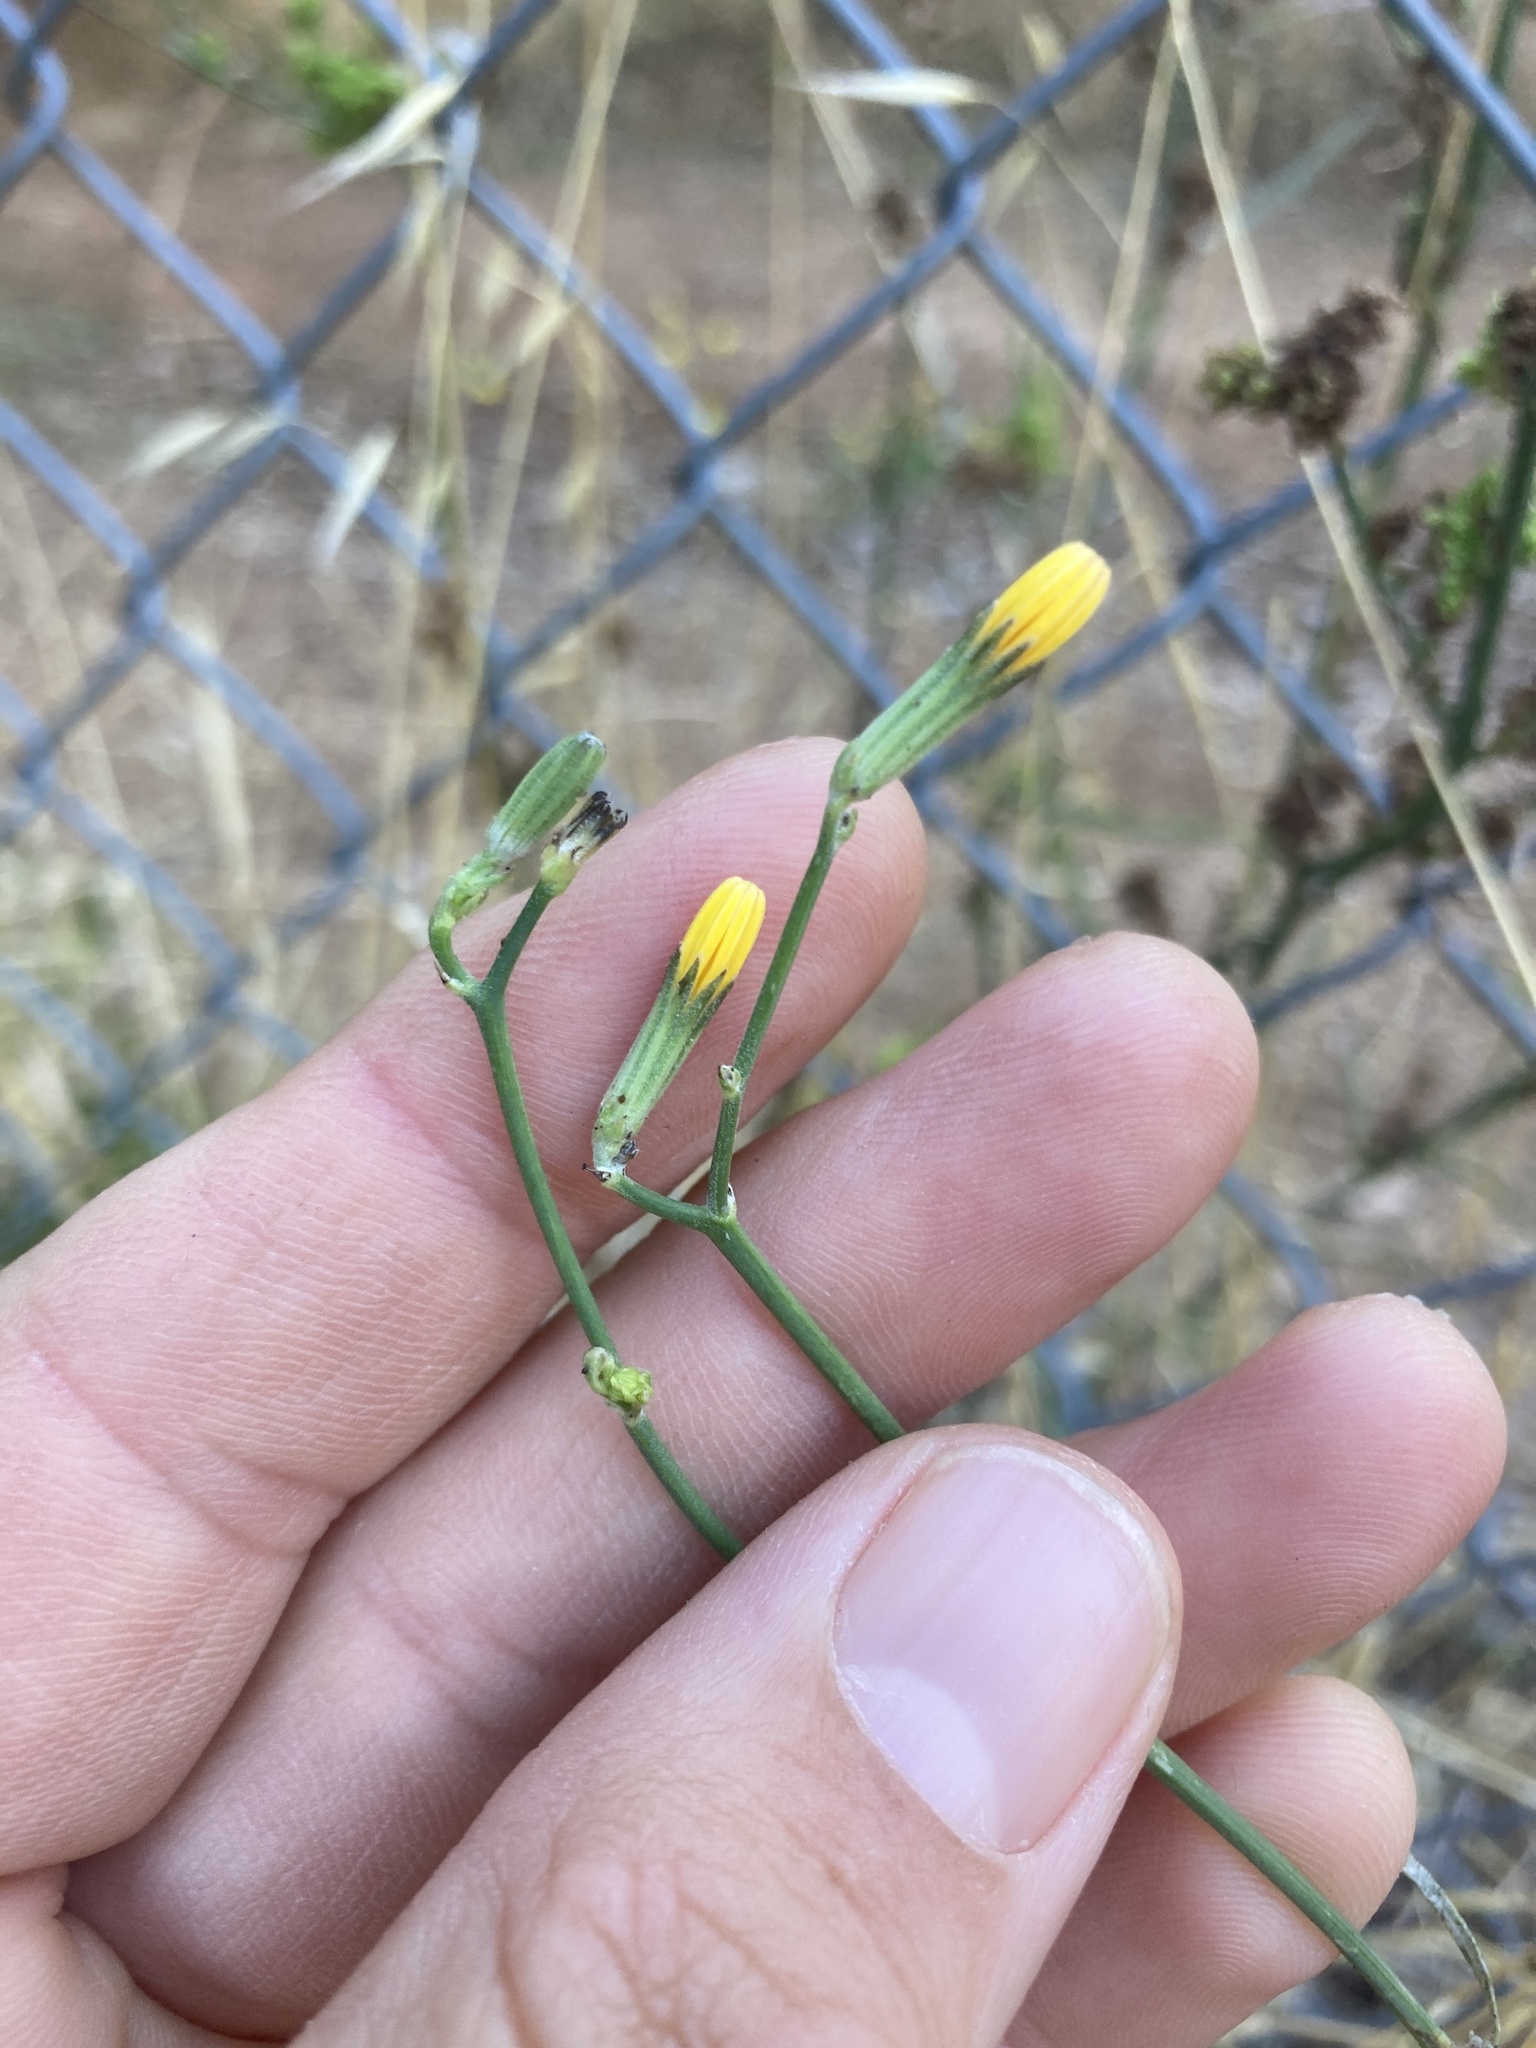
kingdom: Plantae
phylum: Tracheophyta
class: Magnoliopsida
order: Asterales
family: Asteraceae
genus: Chondrilla
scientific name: Chondrilla juncea
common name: Skeleton weed
